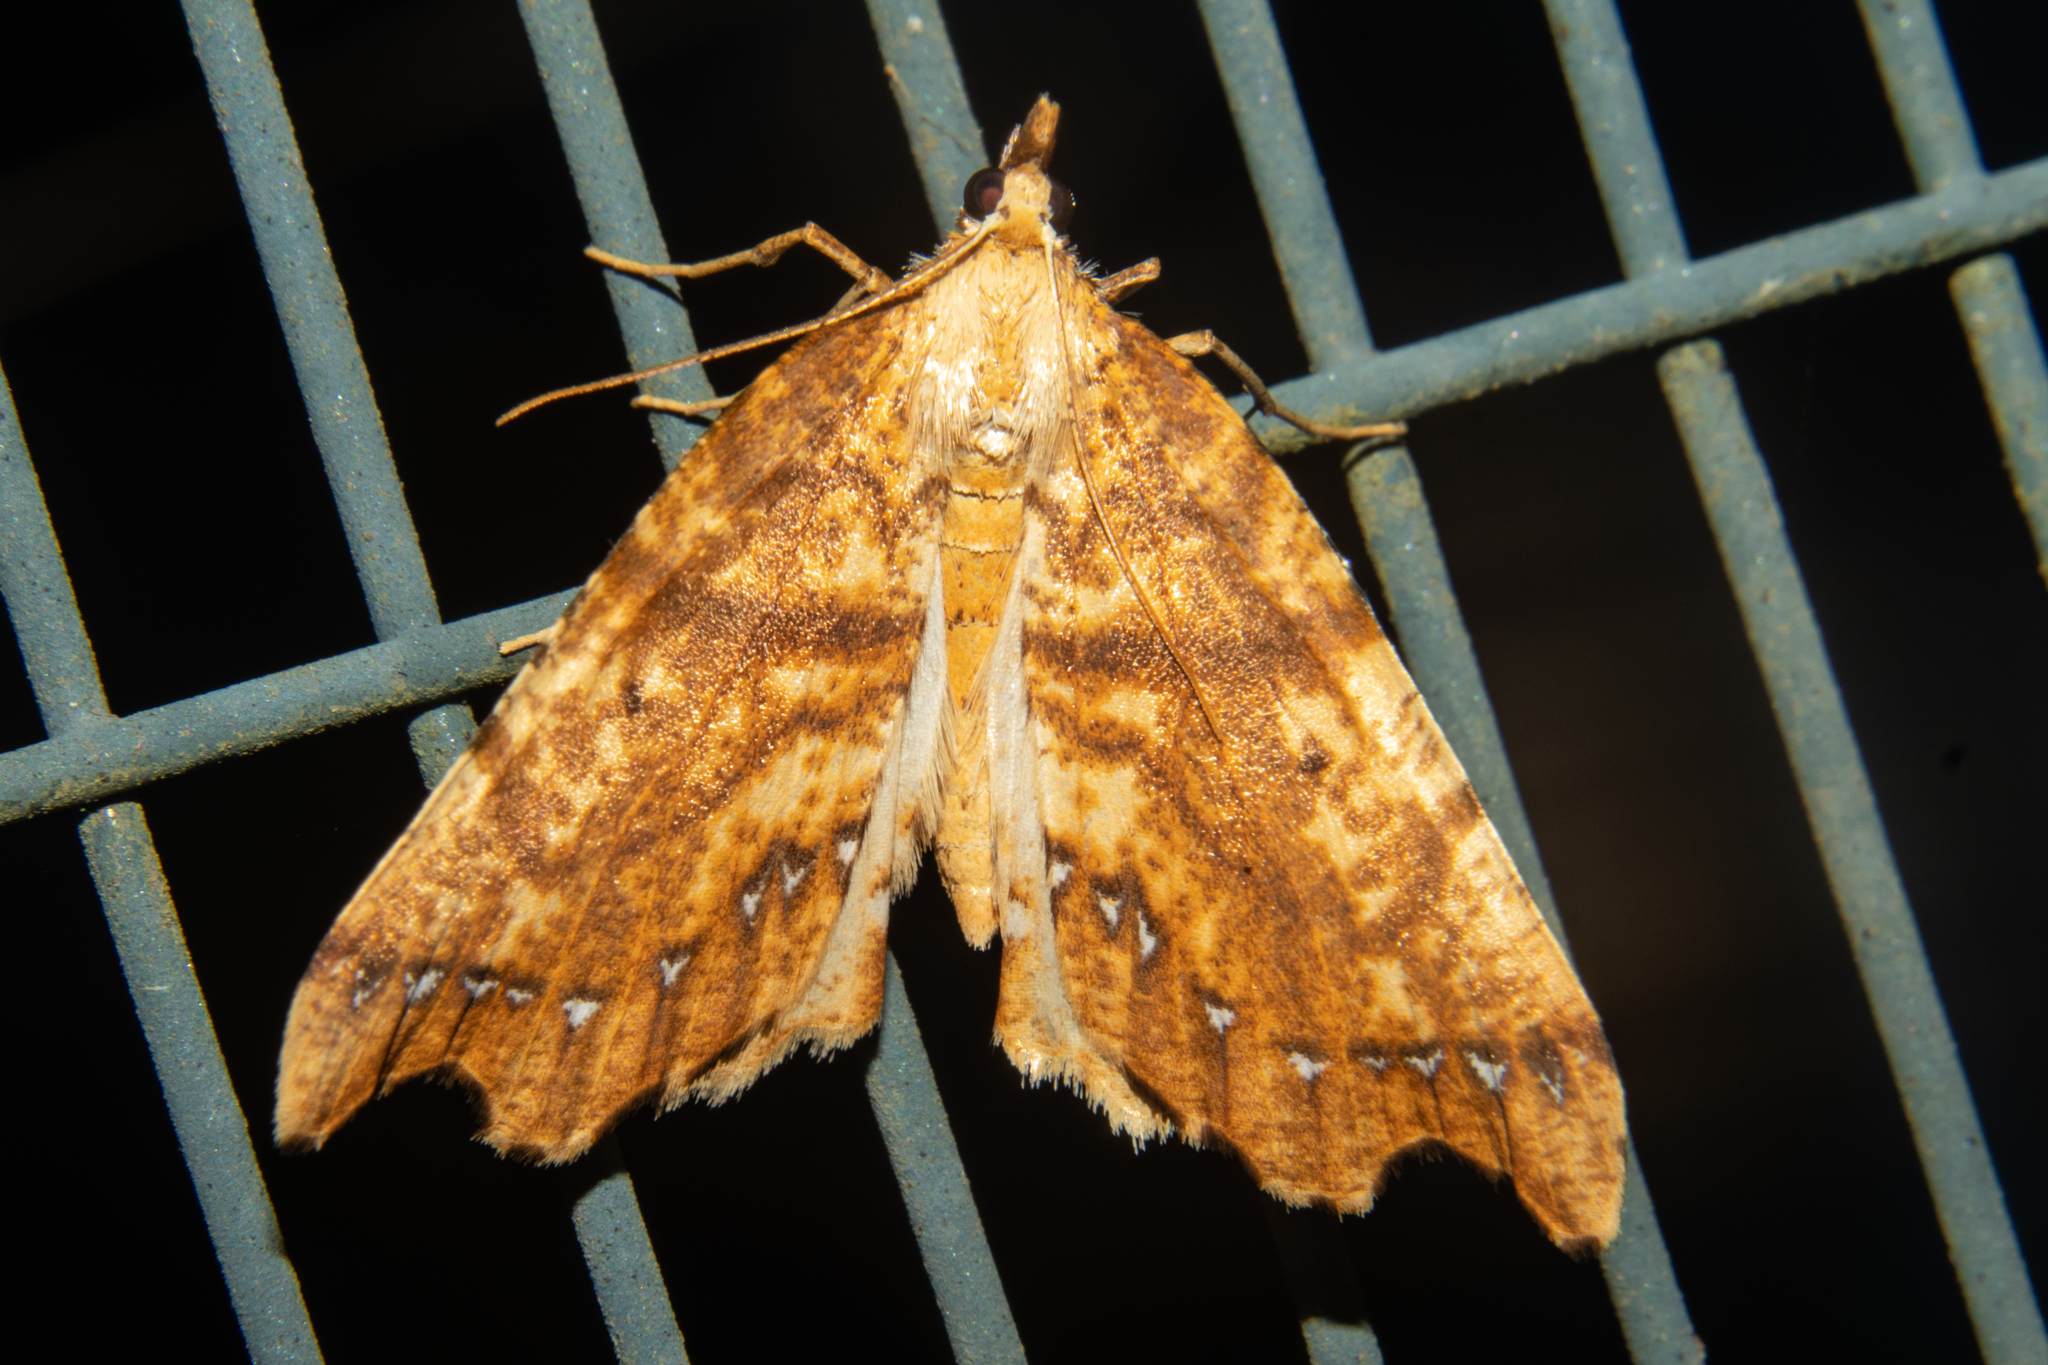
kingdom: Animalia
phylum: Arthropoda
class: Insecta
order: Lepidoptera
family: Geometridae
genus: Chalastra
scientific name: Chalastra pellurgata
